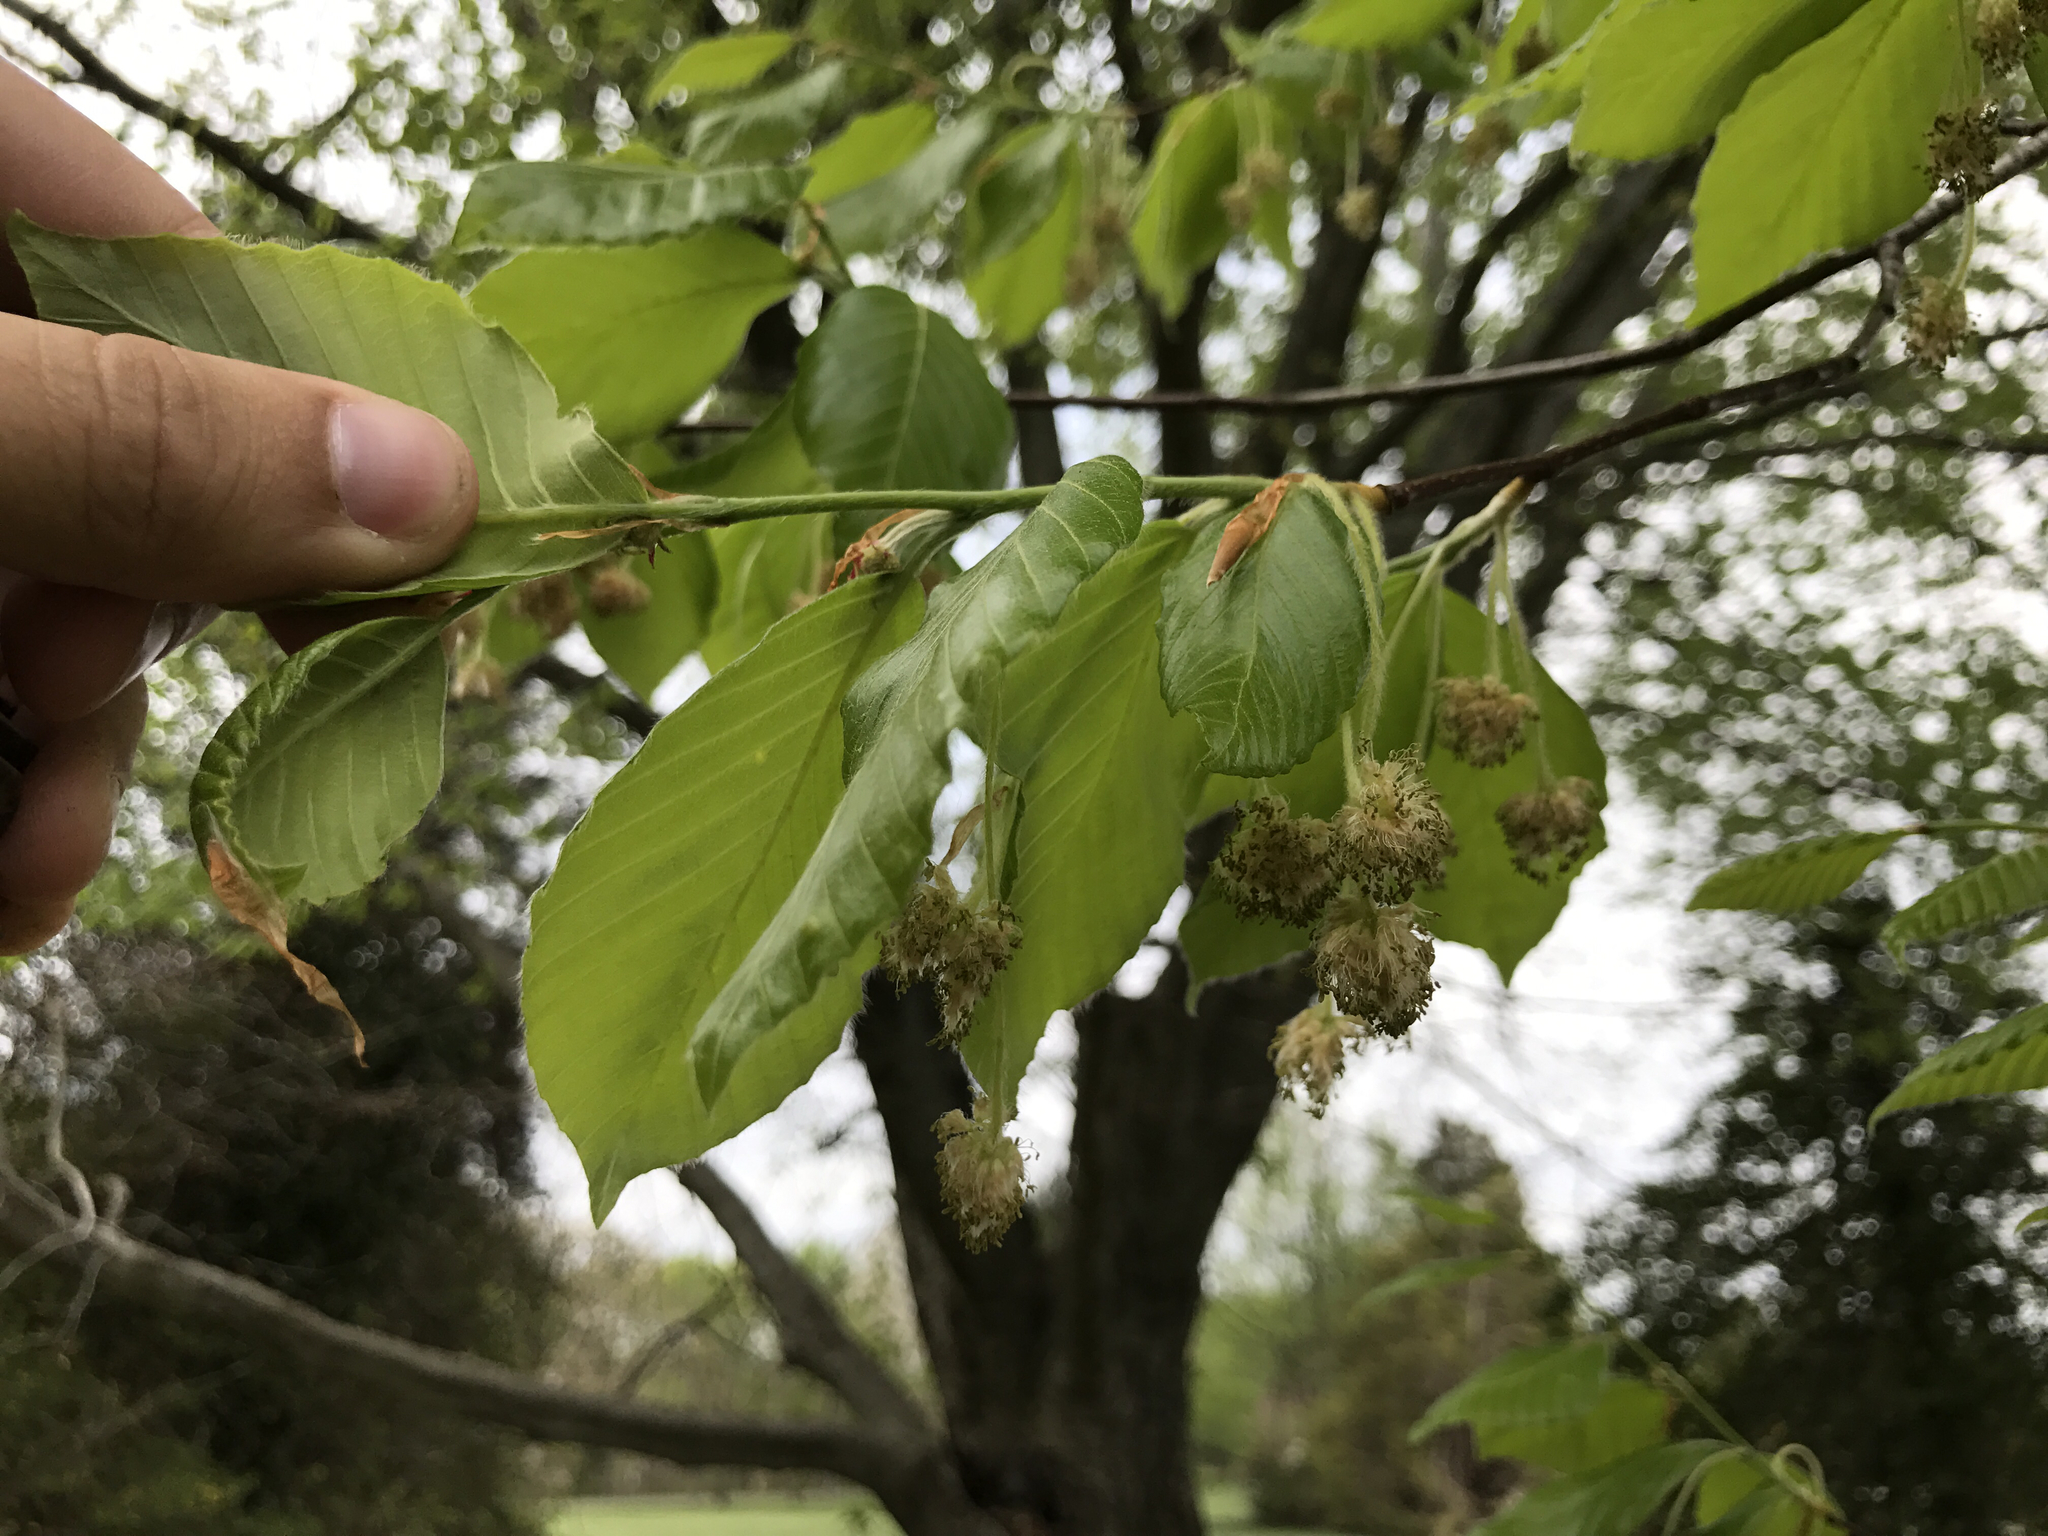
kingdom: Plantae
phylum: Tracheophyta
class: Magnoliopsida
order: Fagales
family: Fagaceae
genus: Fagus
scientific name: Fagus grandifolia
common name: American beech
